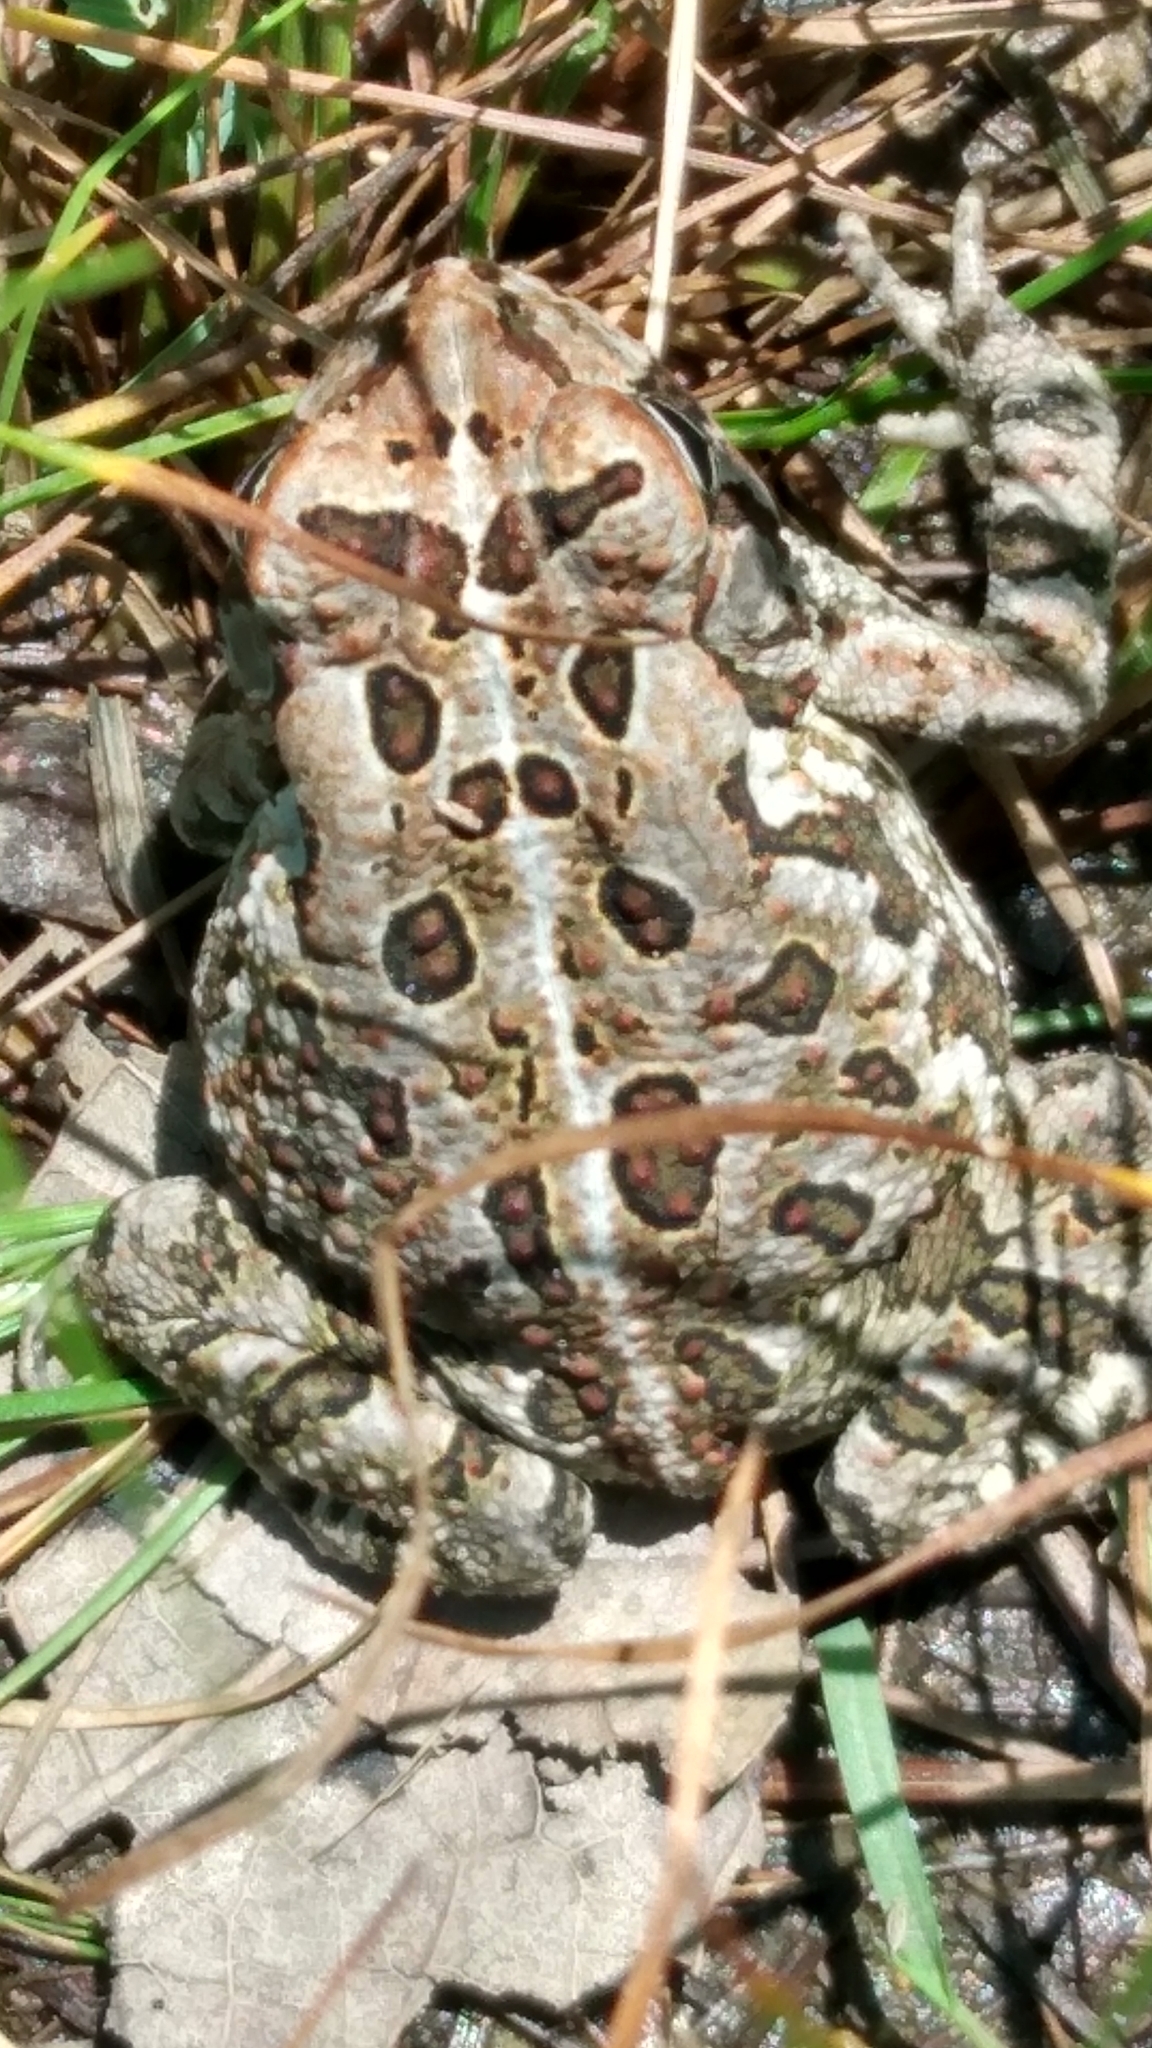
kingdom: Animalia
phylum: Chordata
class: Amphibia
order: Anura
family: Bufonidae
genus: Anaxyrus
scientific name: Anaxyrus fowleri
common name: Fowler's toad
